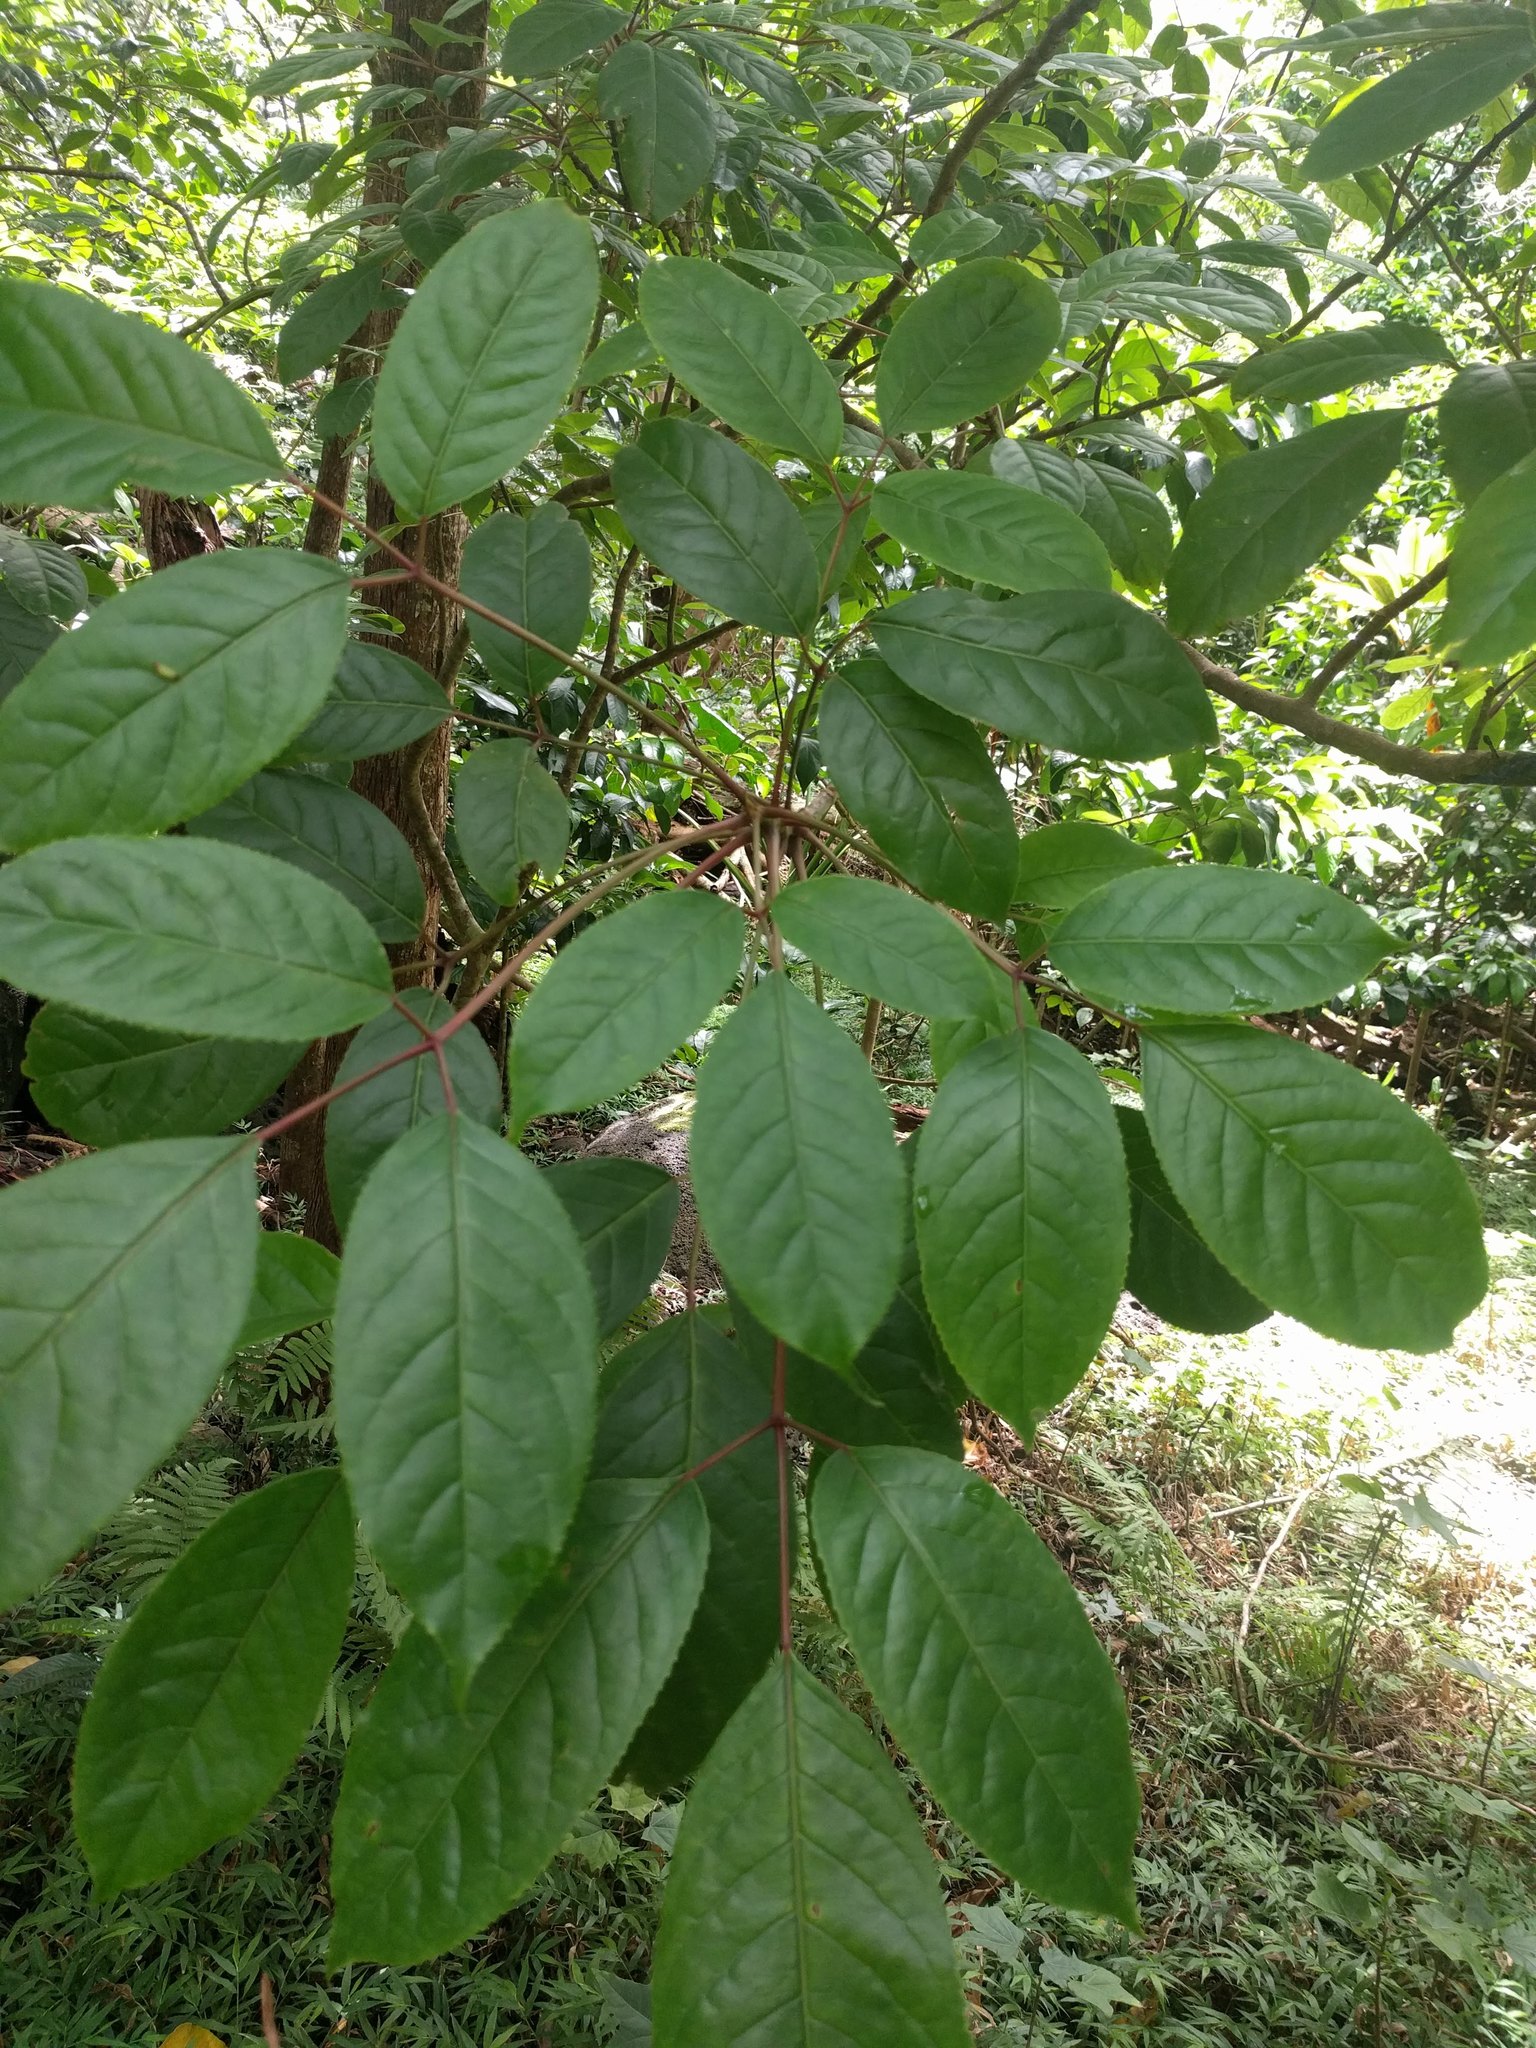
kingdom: Plantae
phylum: Tracheophyta
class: Magnoliopsida
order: Malpighiales
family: Phyllanthaceae
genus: Bischofia
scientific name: Bischofia javanica
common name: Javanese bishopwood
